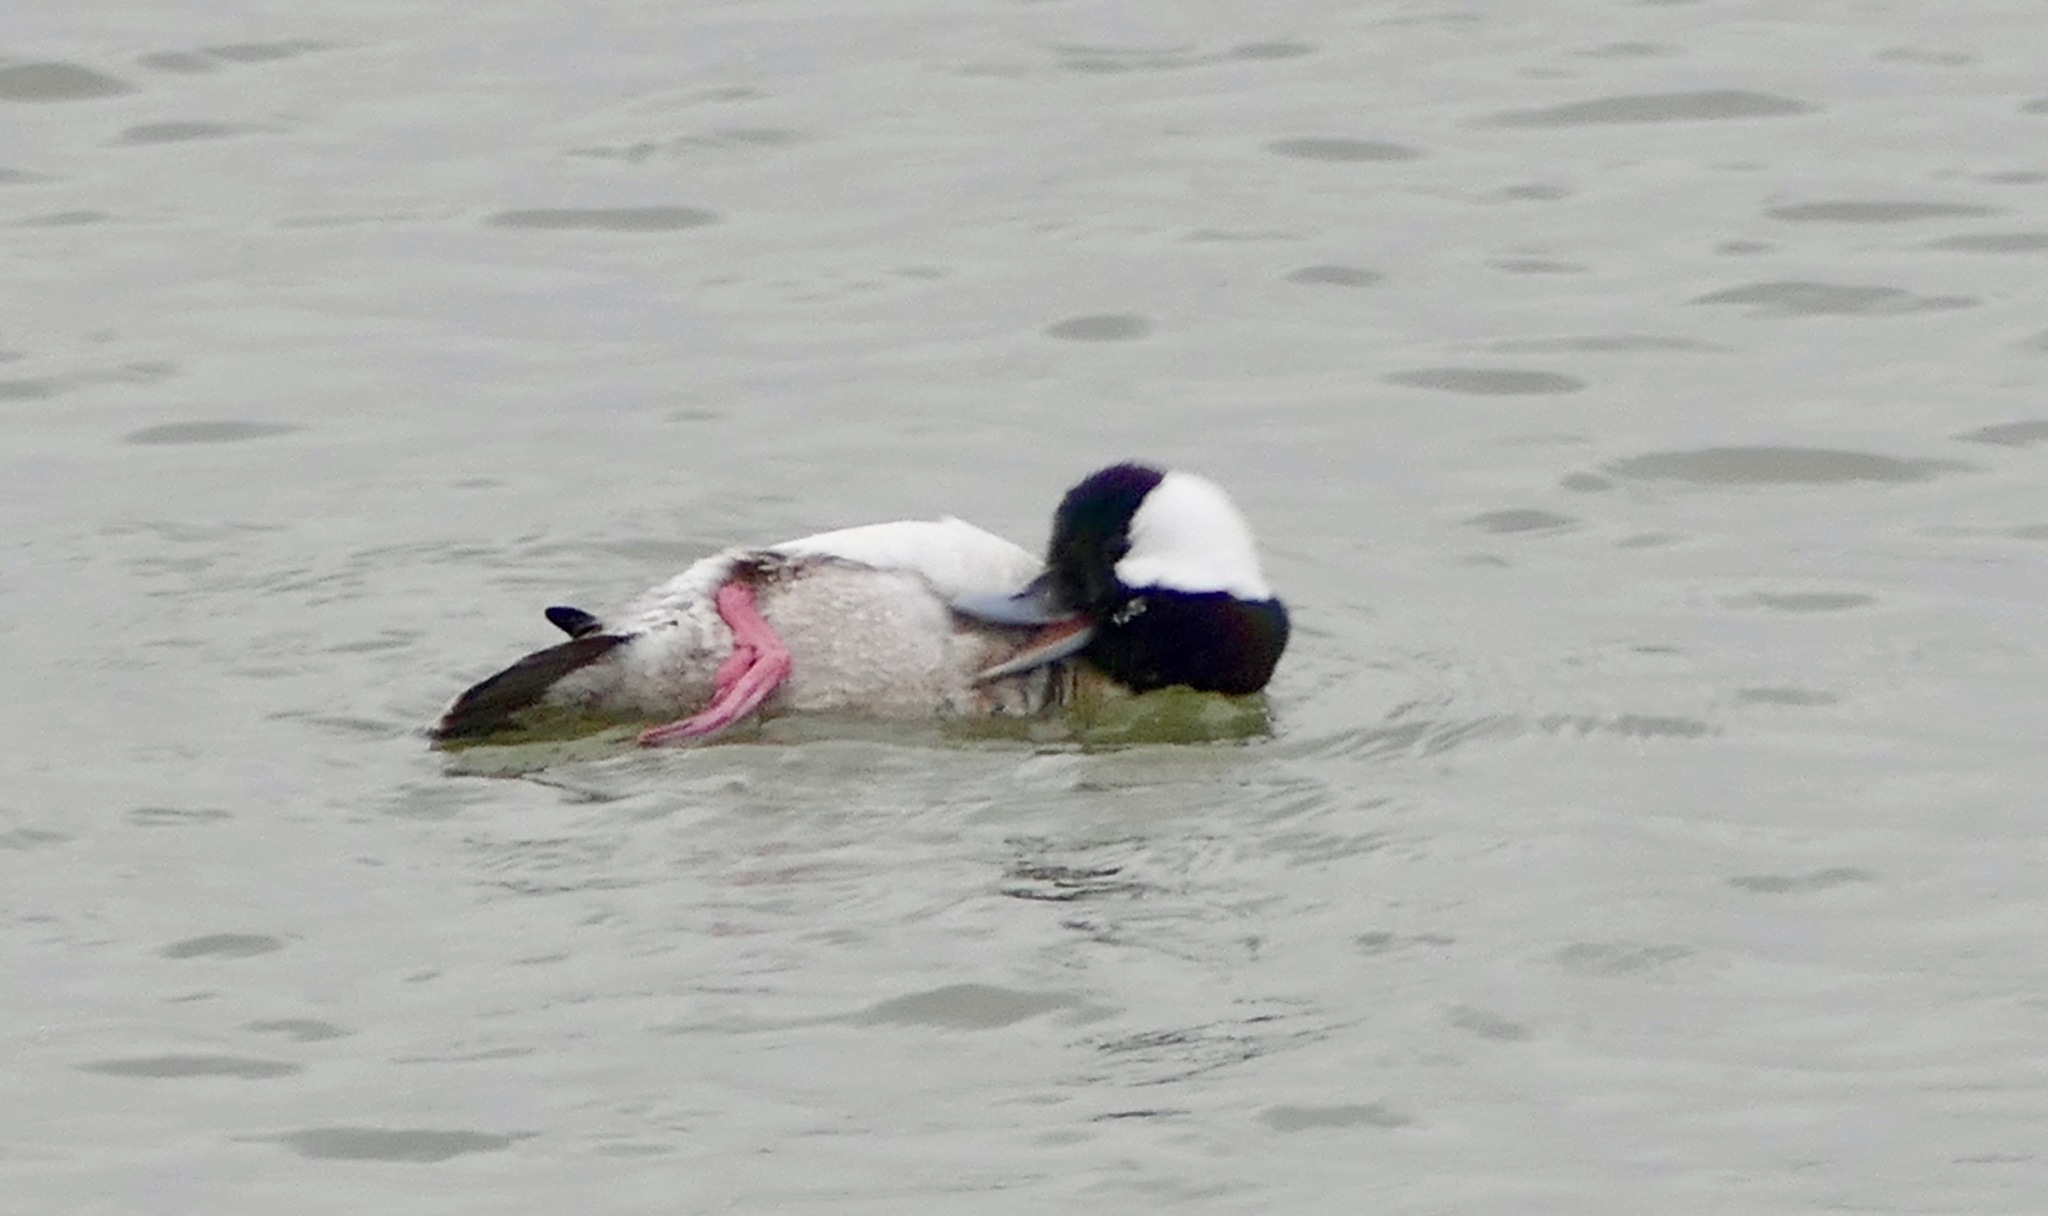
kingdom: Animalia
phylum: Chordata
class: Aves
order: Anseriformes
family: Anatidae
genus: Bucephala
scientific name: Bucephala albeola
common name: Bufflehead
